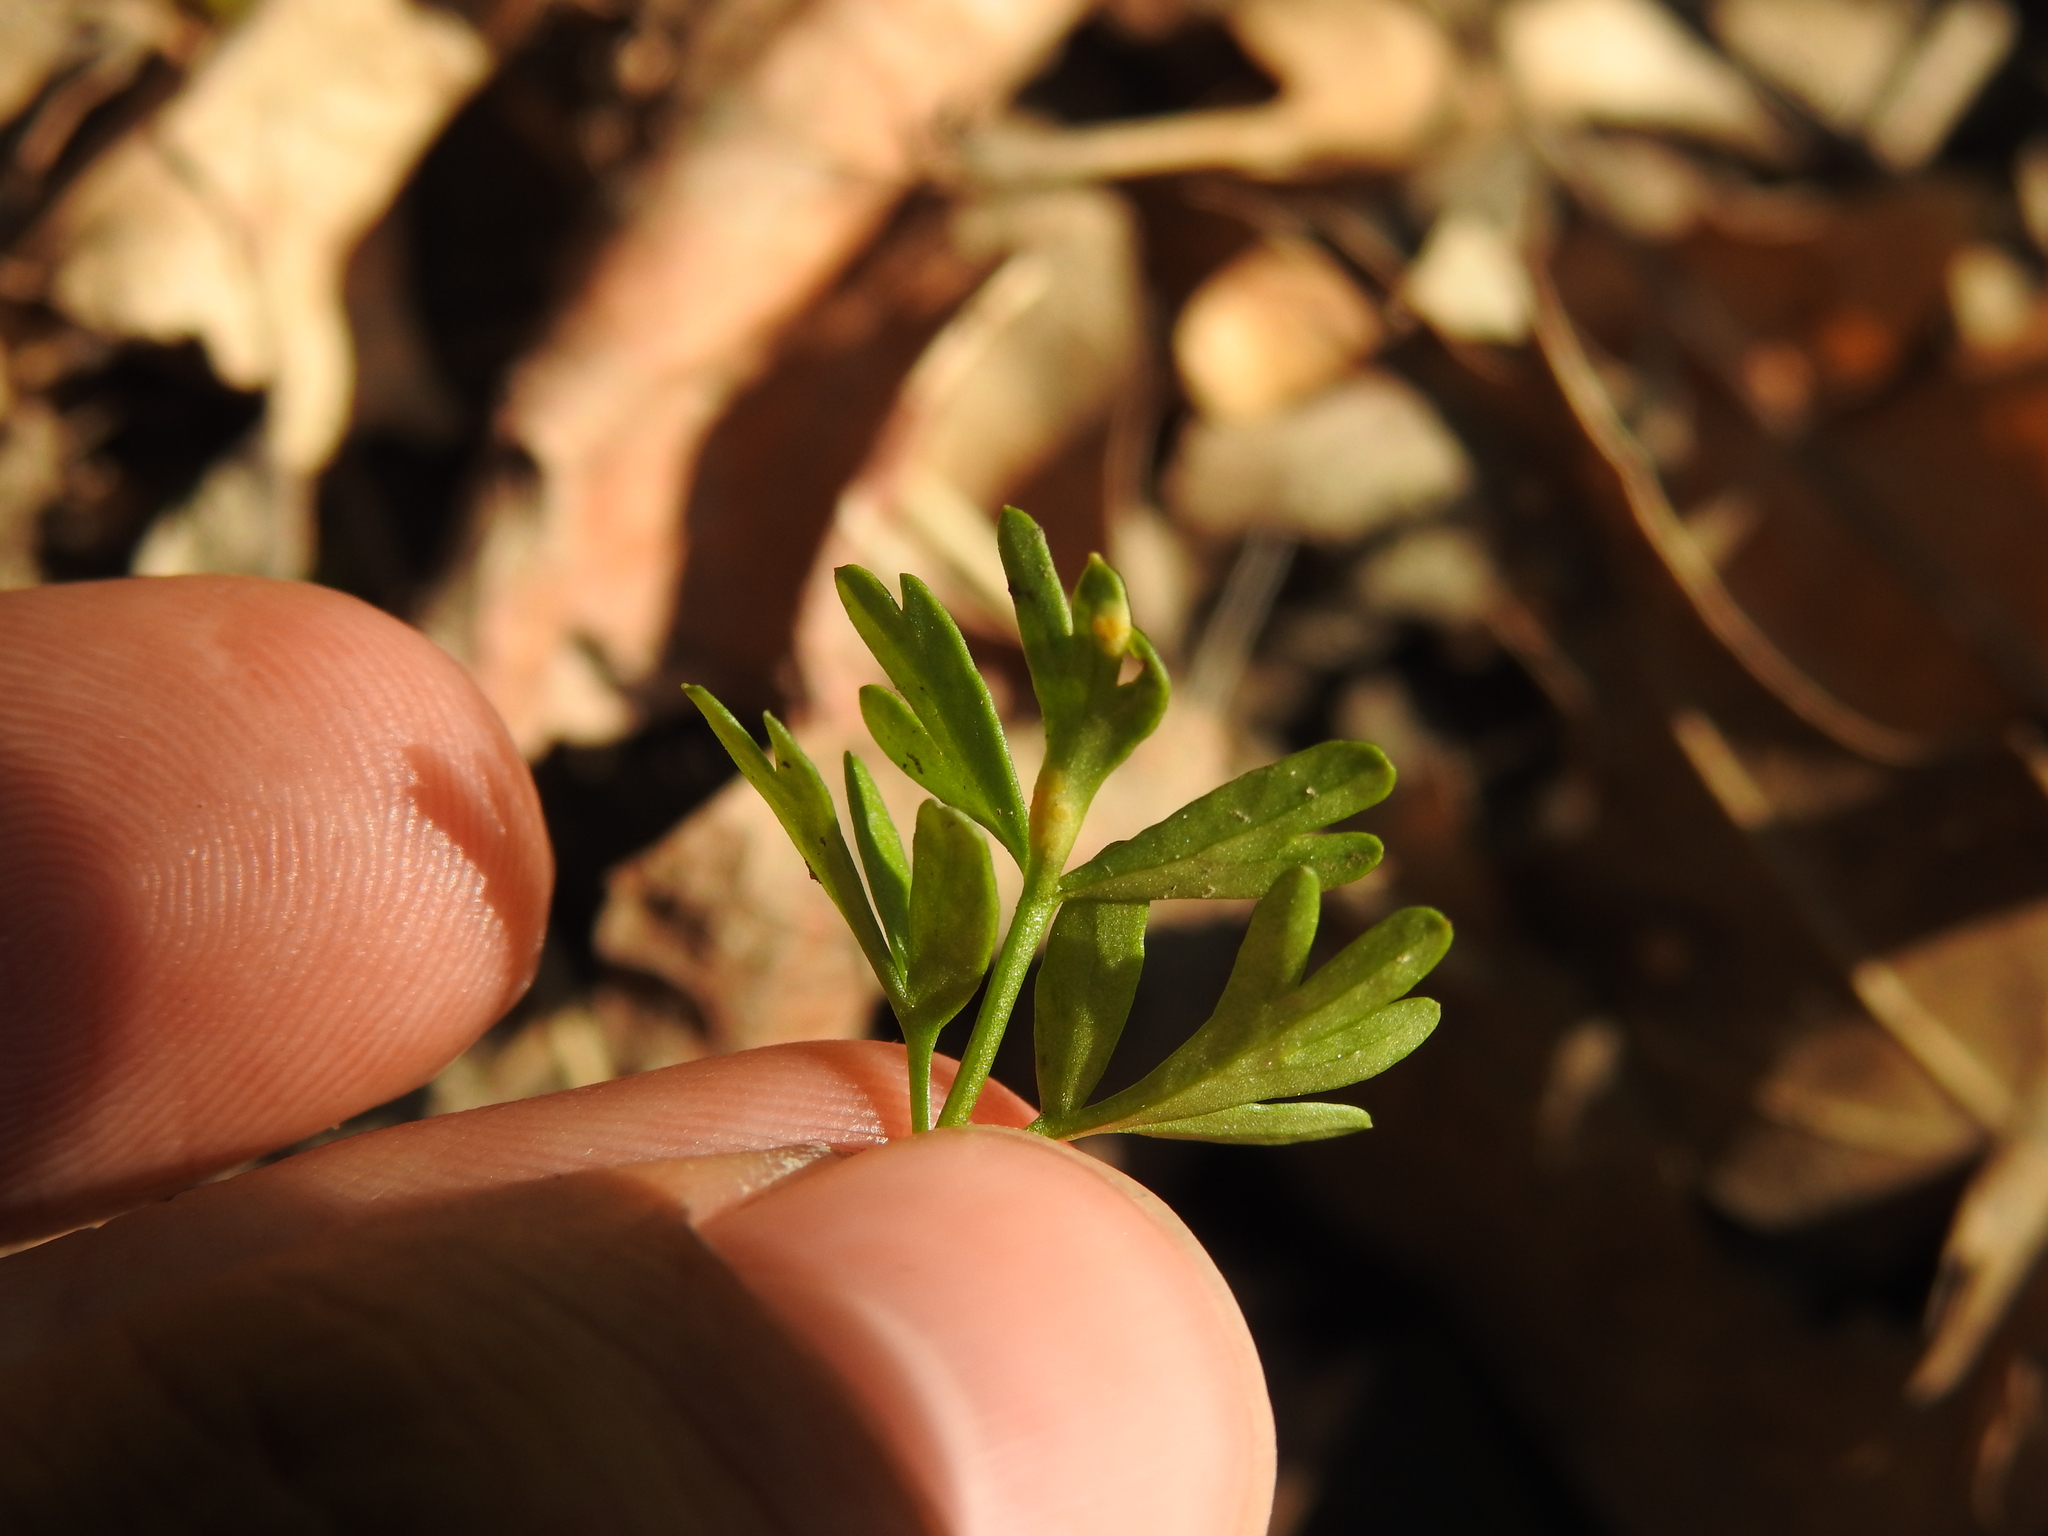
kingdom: Fungi
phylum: Basidiomycota
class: Pucciniomycetes
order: Pucciniales
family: Pucciniaceae
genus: Puccinia
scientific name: Puccinia erigeniae
